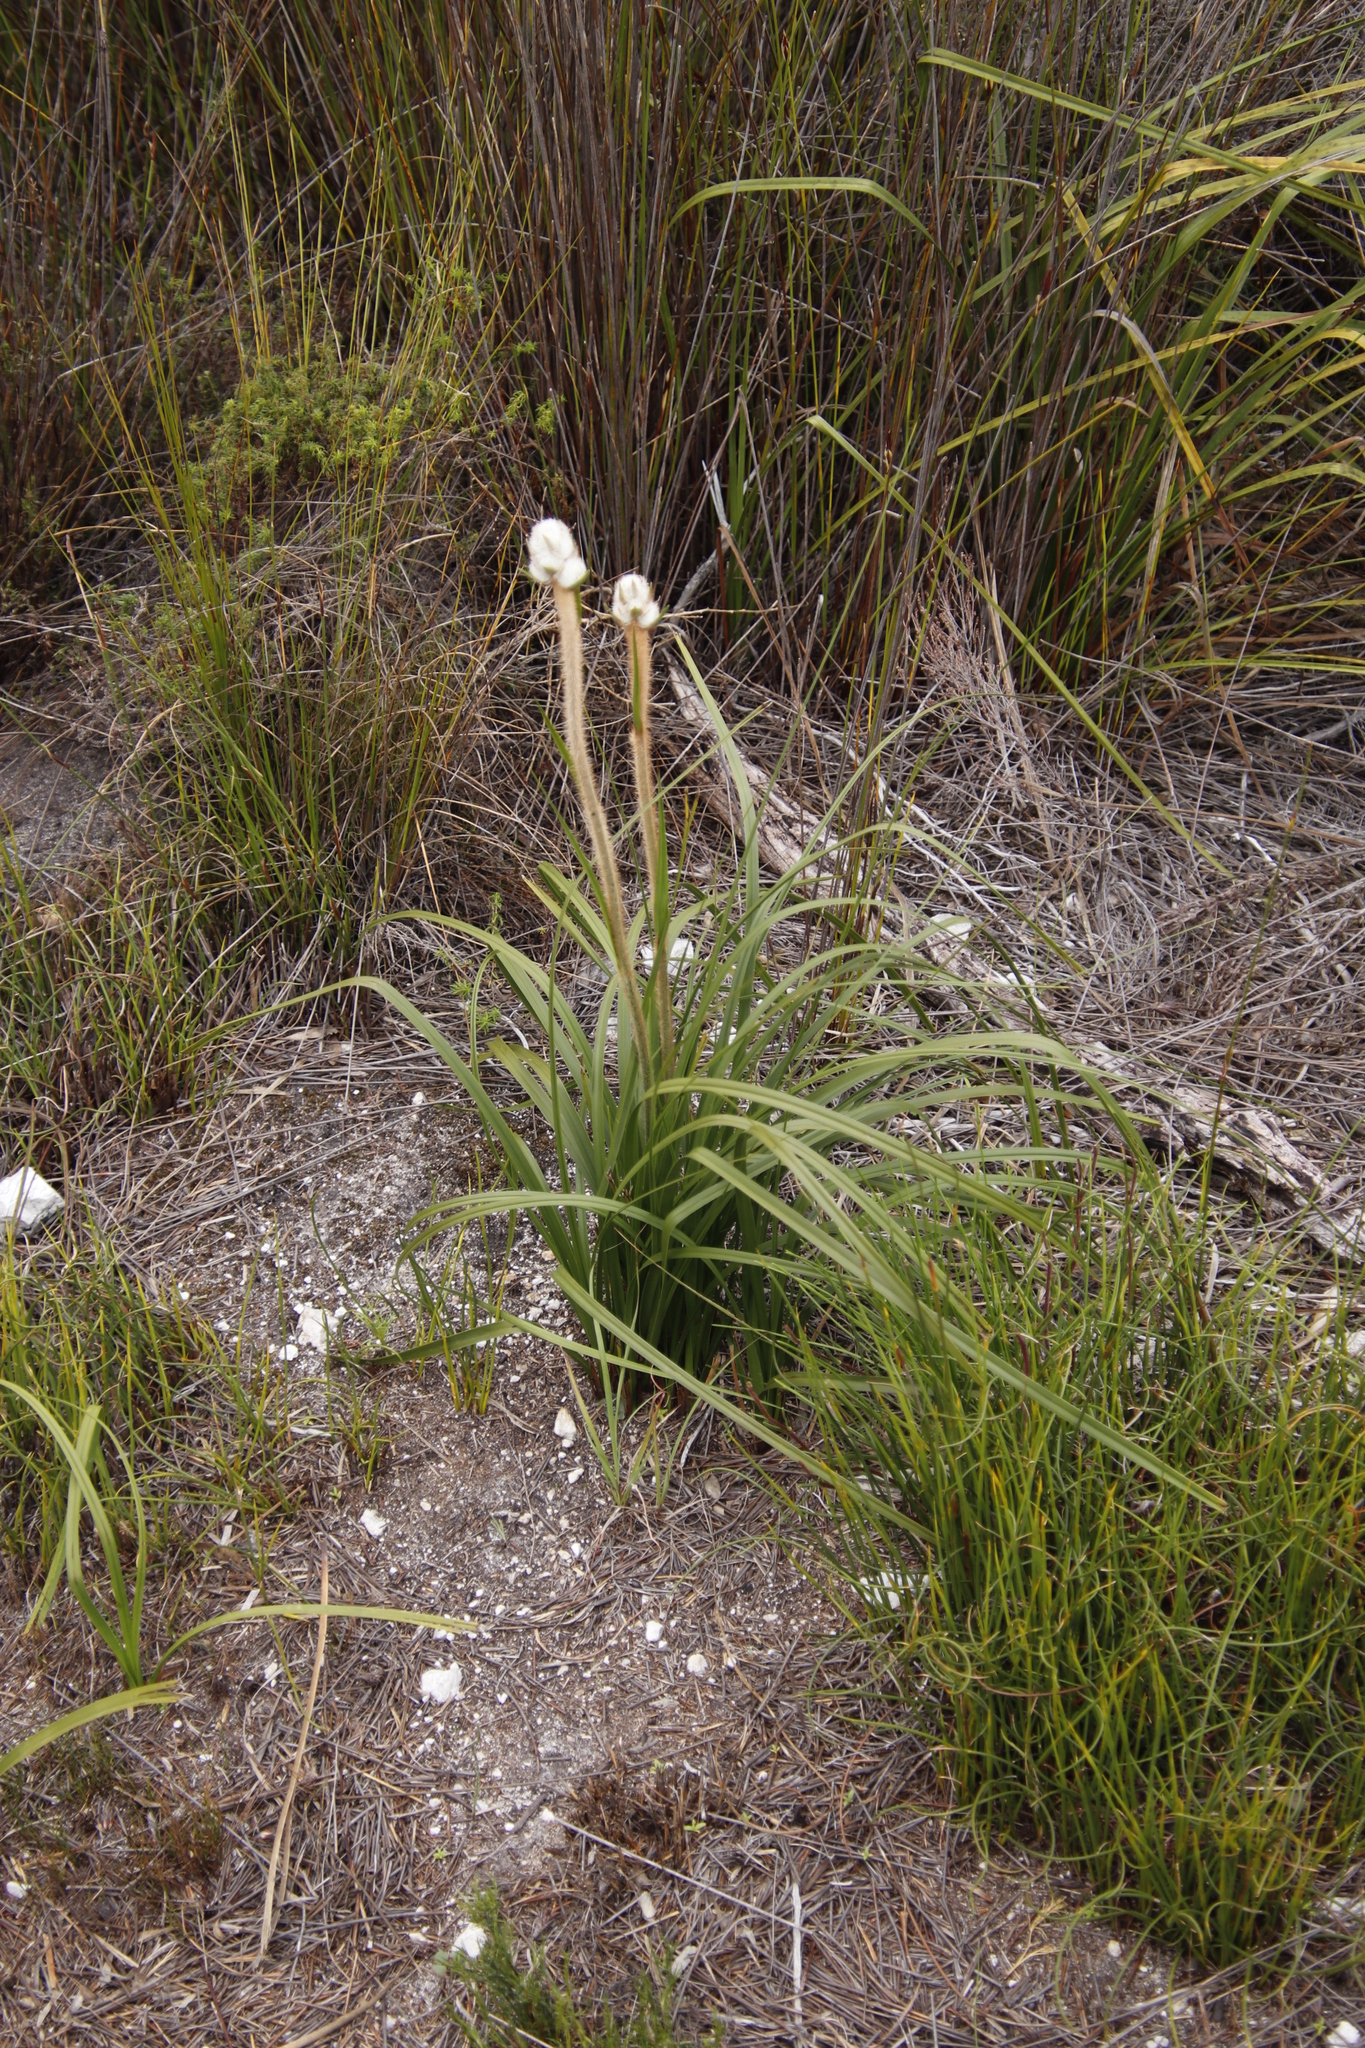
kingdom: Plantae
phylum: Tracheophyta
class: Liliopsida
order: Asparagales
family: Lanariaceae
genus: Lanaria
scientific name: Lanaria lanata
